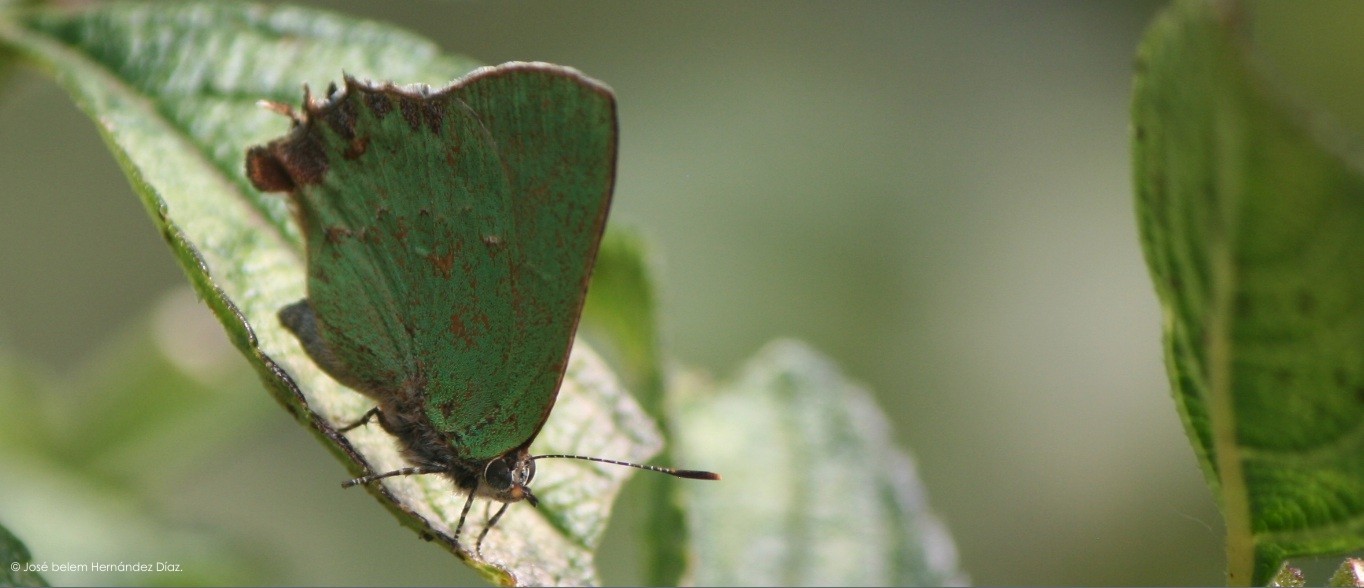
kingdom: Animalia
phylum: Arthropoda
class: Insecta
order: Lepidoptera
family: Lycaenidae
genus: Cyanophrys
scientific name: Cyanophrys longula
